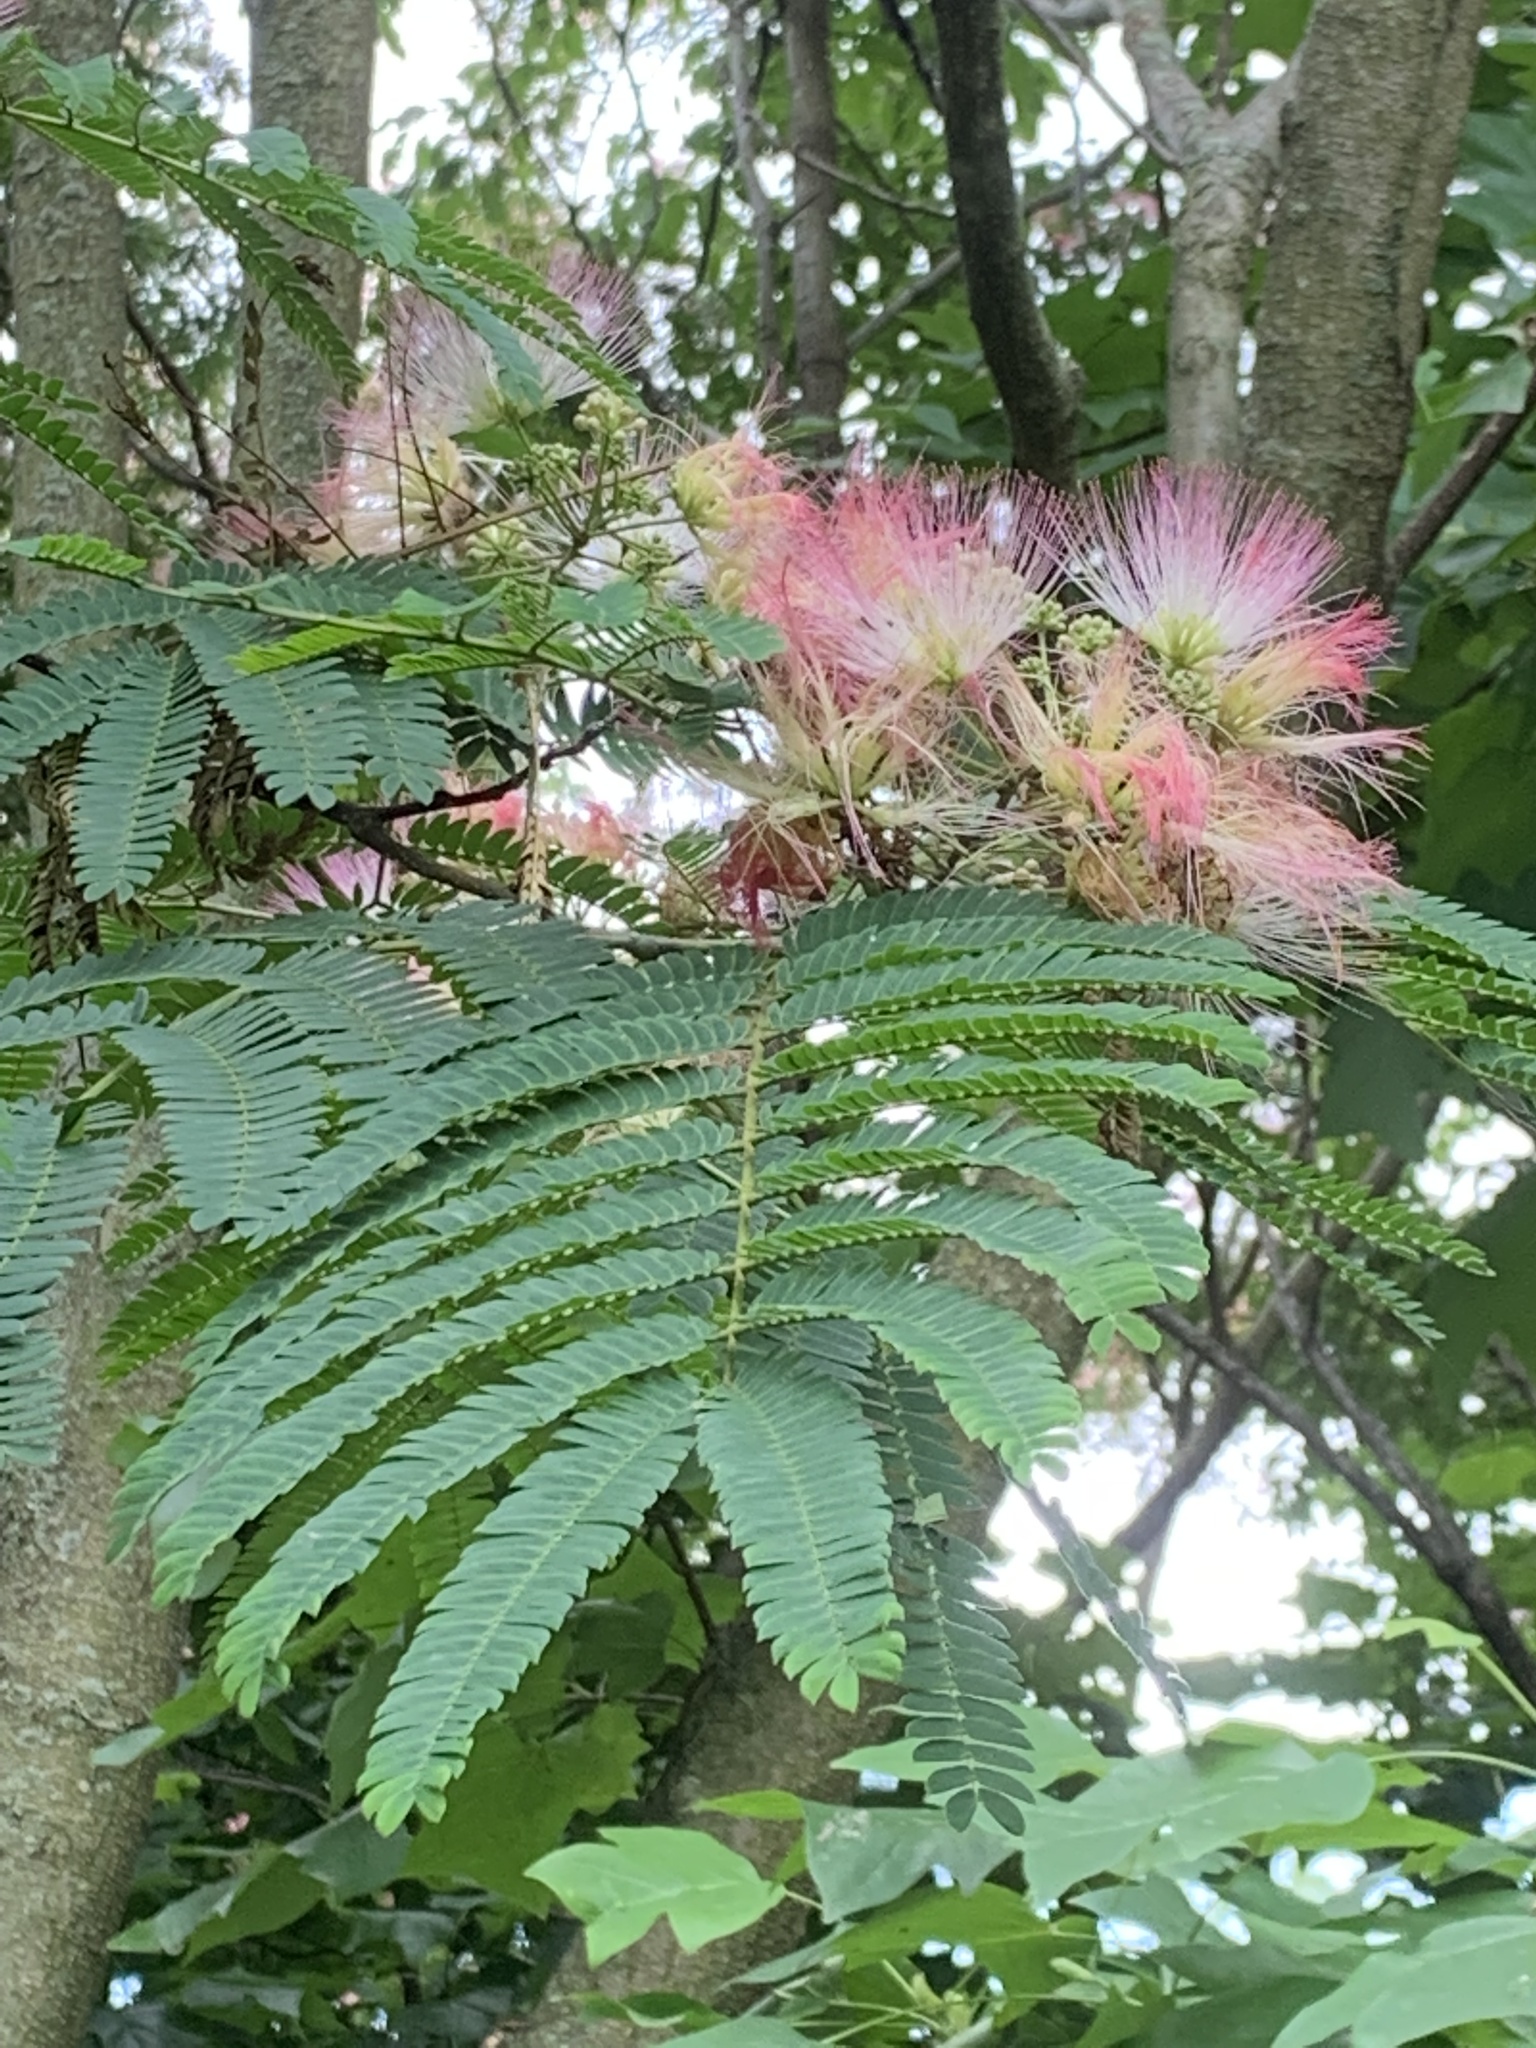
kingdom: Plantae
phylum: Tracheophyta
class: Magnoliopsida
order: Fabales
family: Fabaceae
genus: Albizia
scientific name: Albizia julibrissin
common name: Silktree
